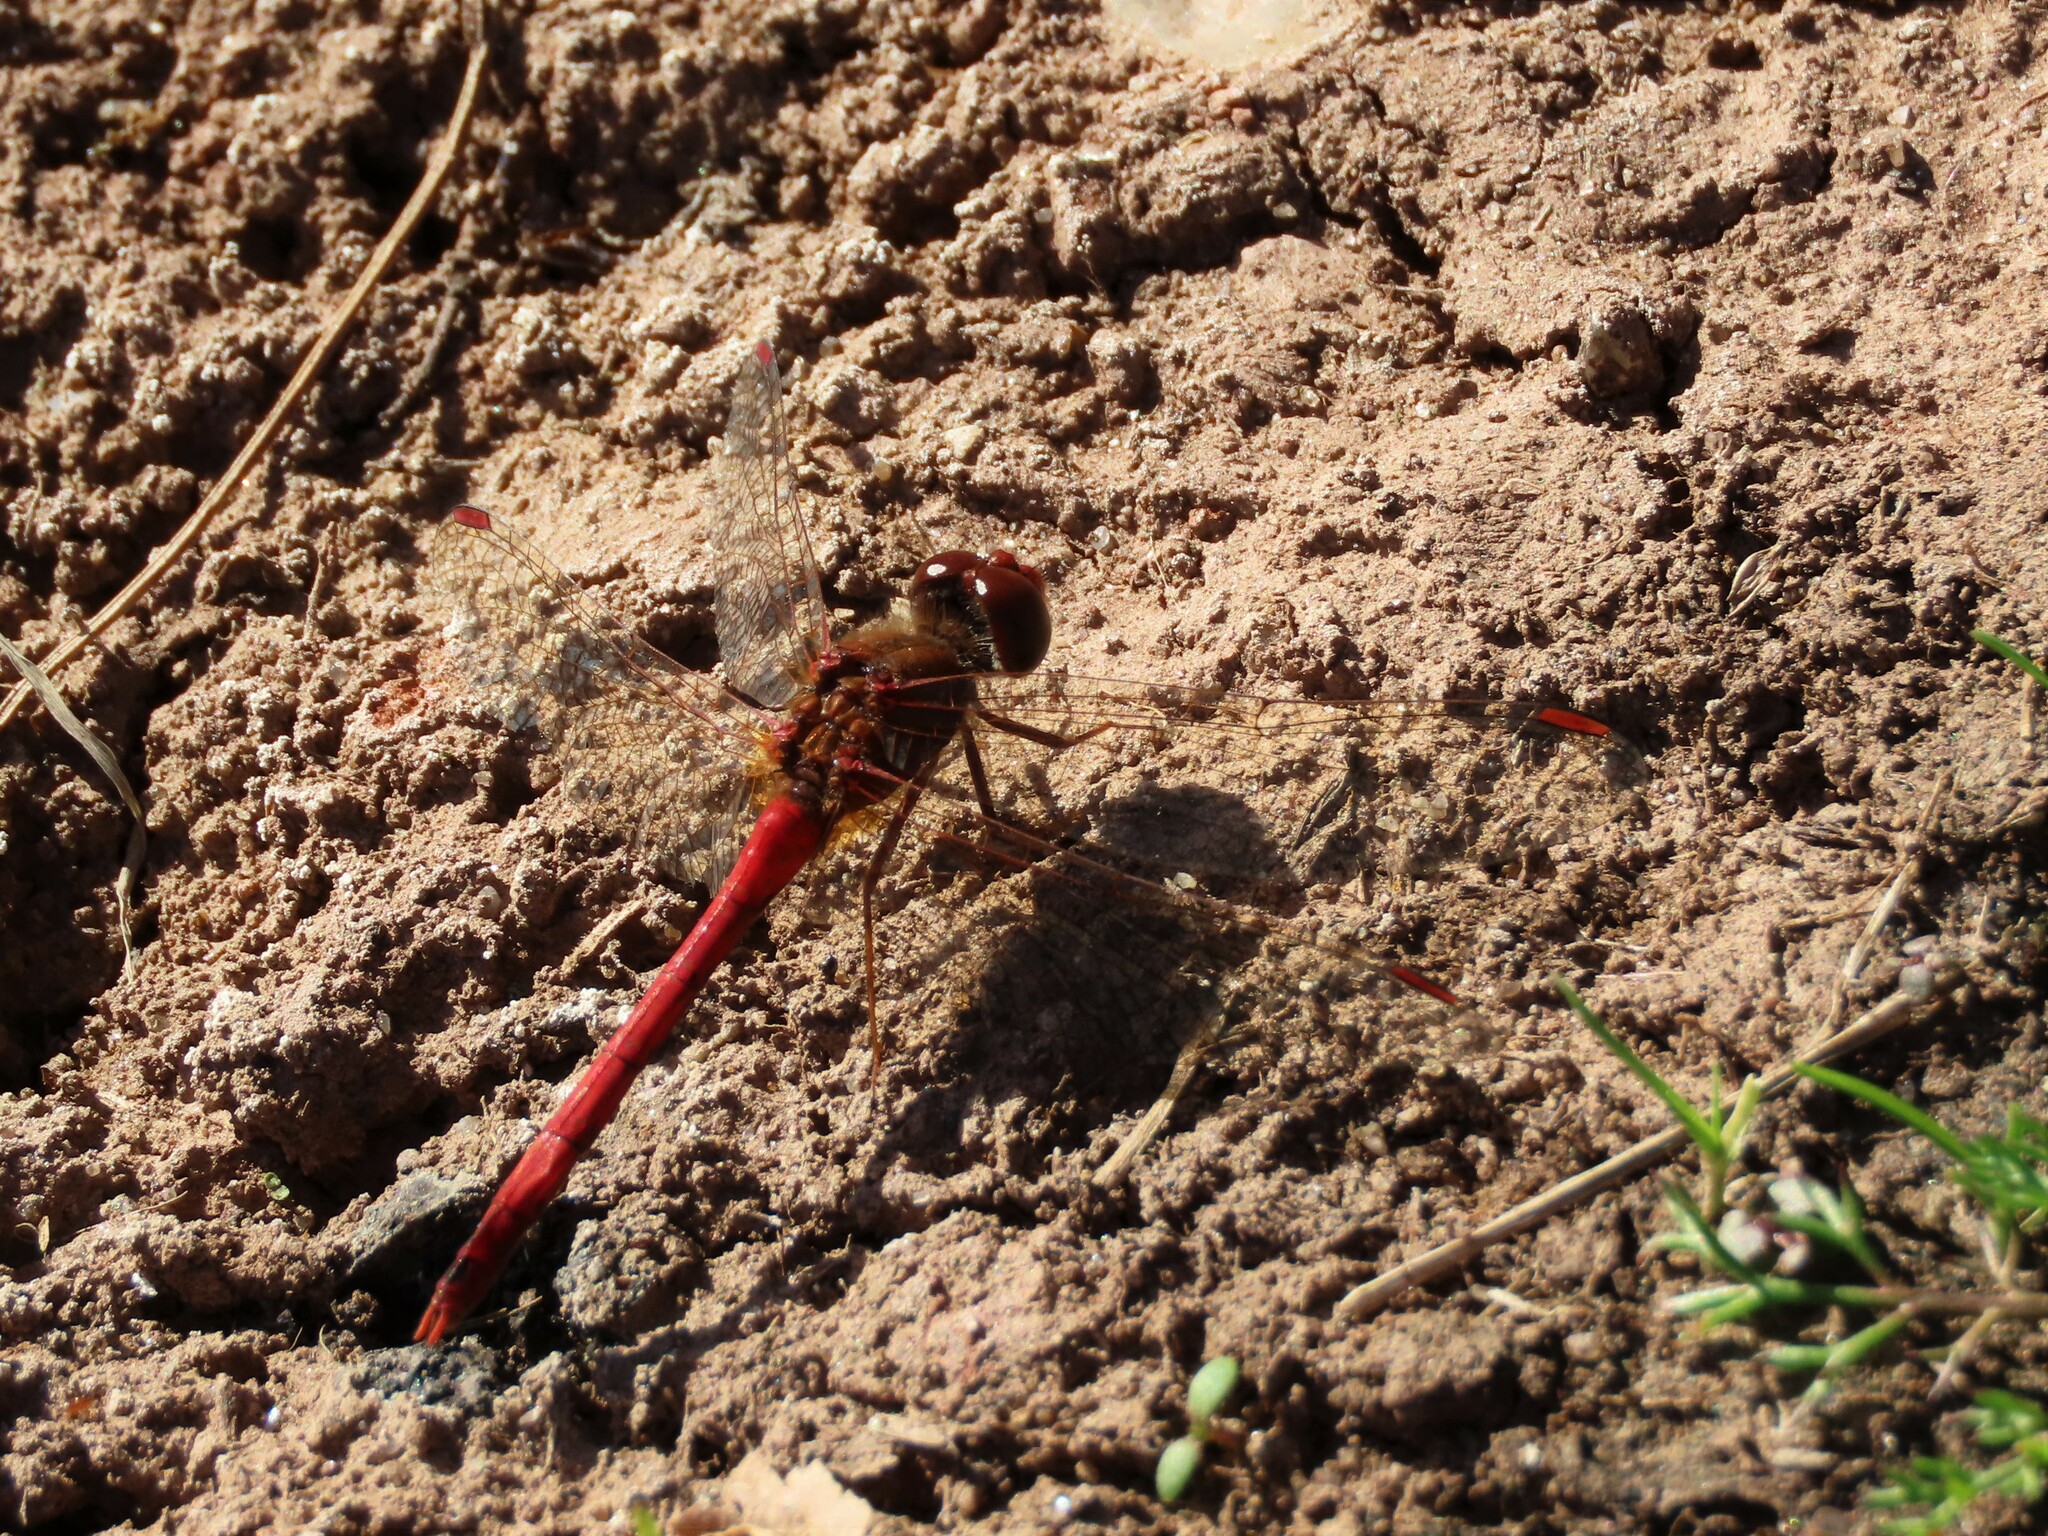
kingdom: Animalia
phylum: Arthropoda
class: Insecta
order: Odonata
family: Libellulidae
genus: Sympetrum
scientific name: Sympetrum vicinum
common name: Autumn meadowhawk
